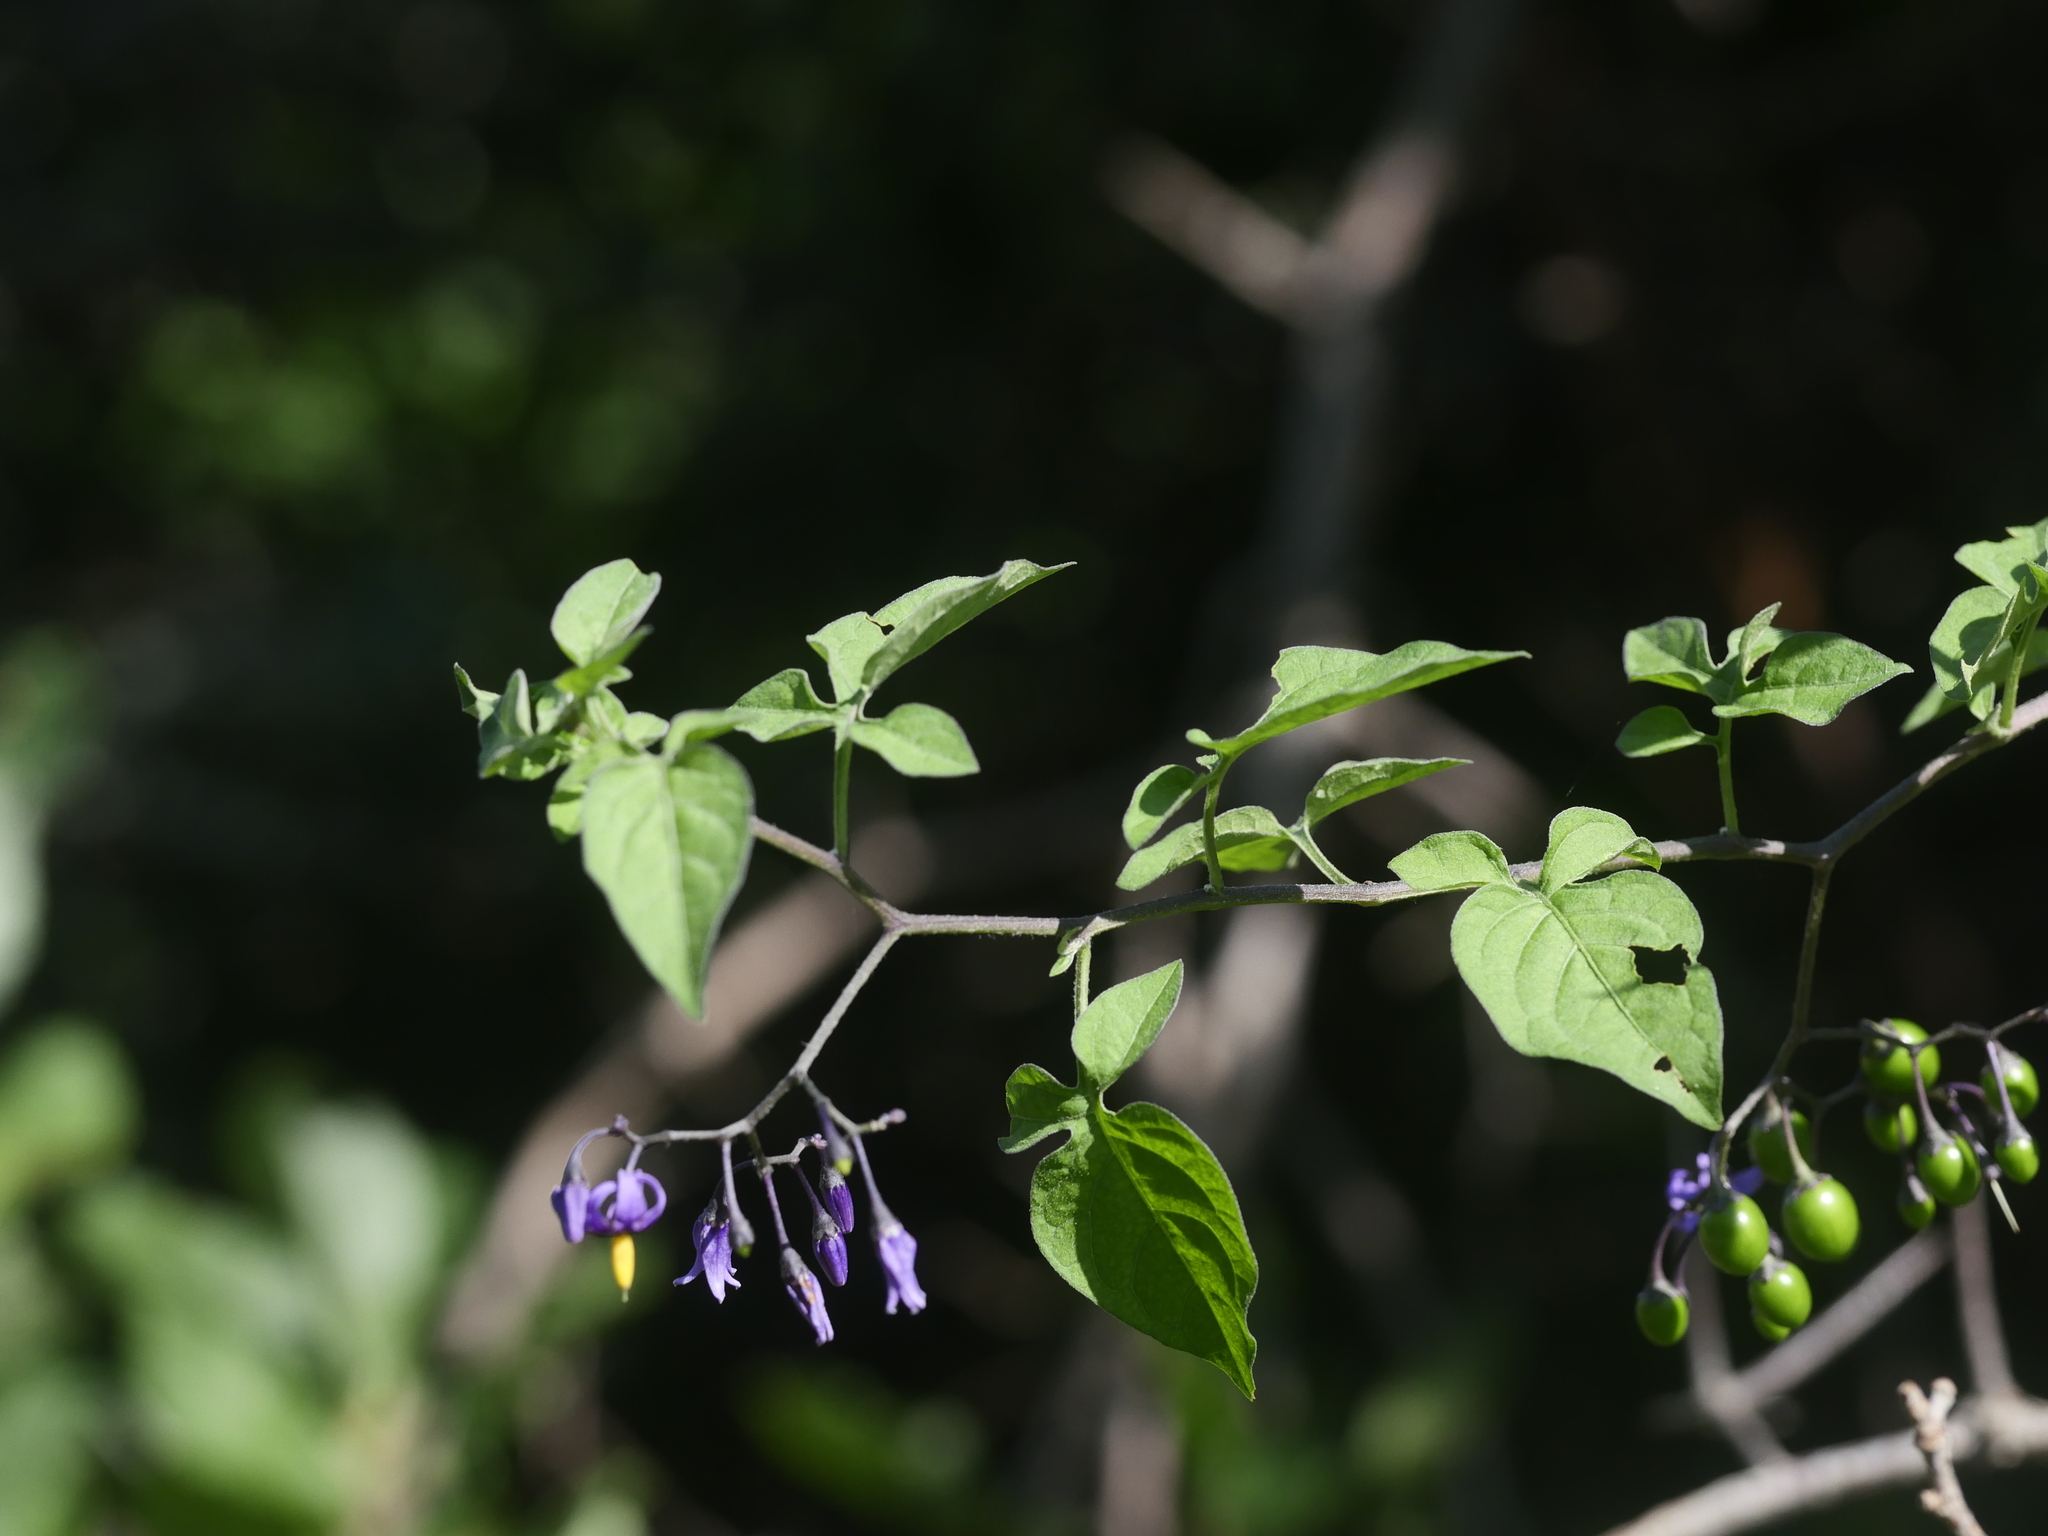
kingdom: Plantae
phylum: Tracheophyta
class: Magnoliopsida
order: Solanales
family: Solanaceae
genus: Solanum
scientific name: Solanum dulcamara
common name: Climbing nightshade
